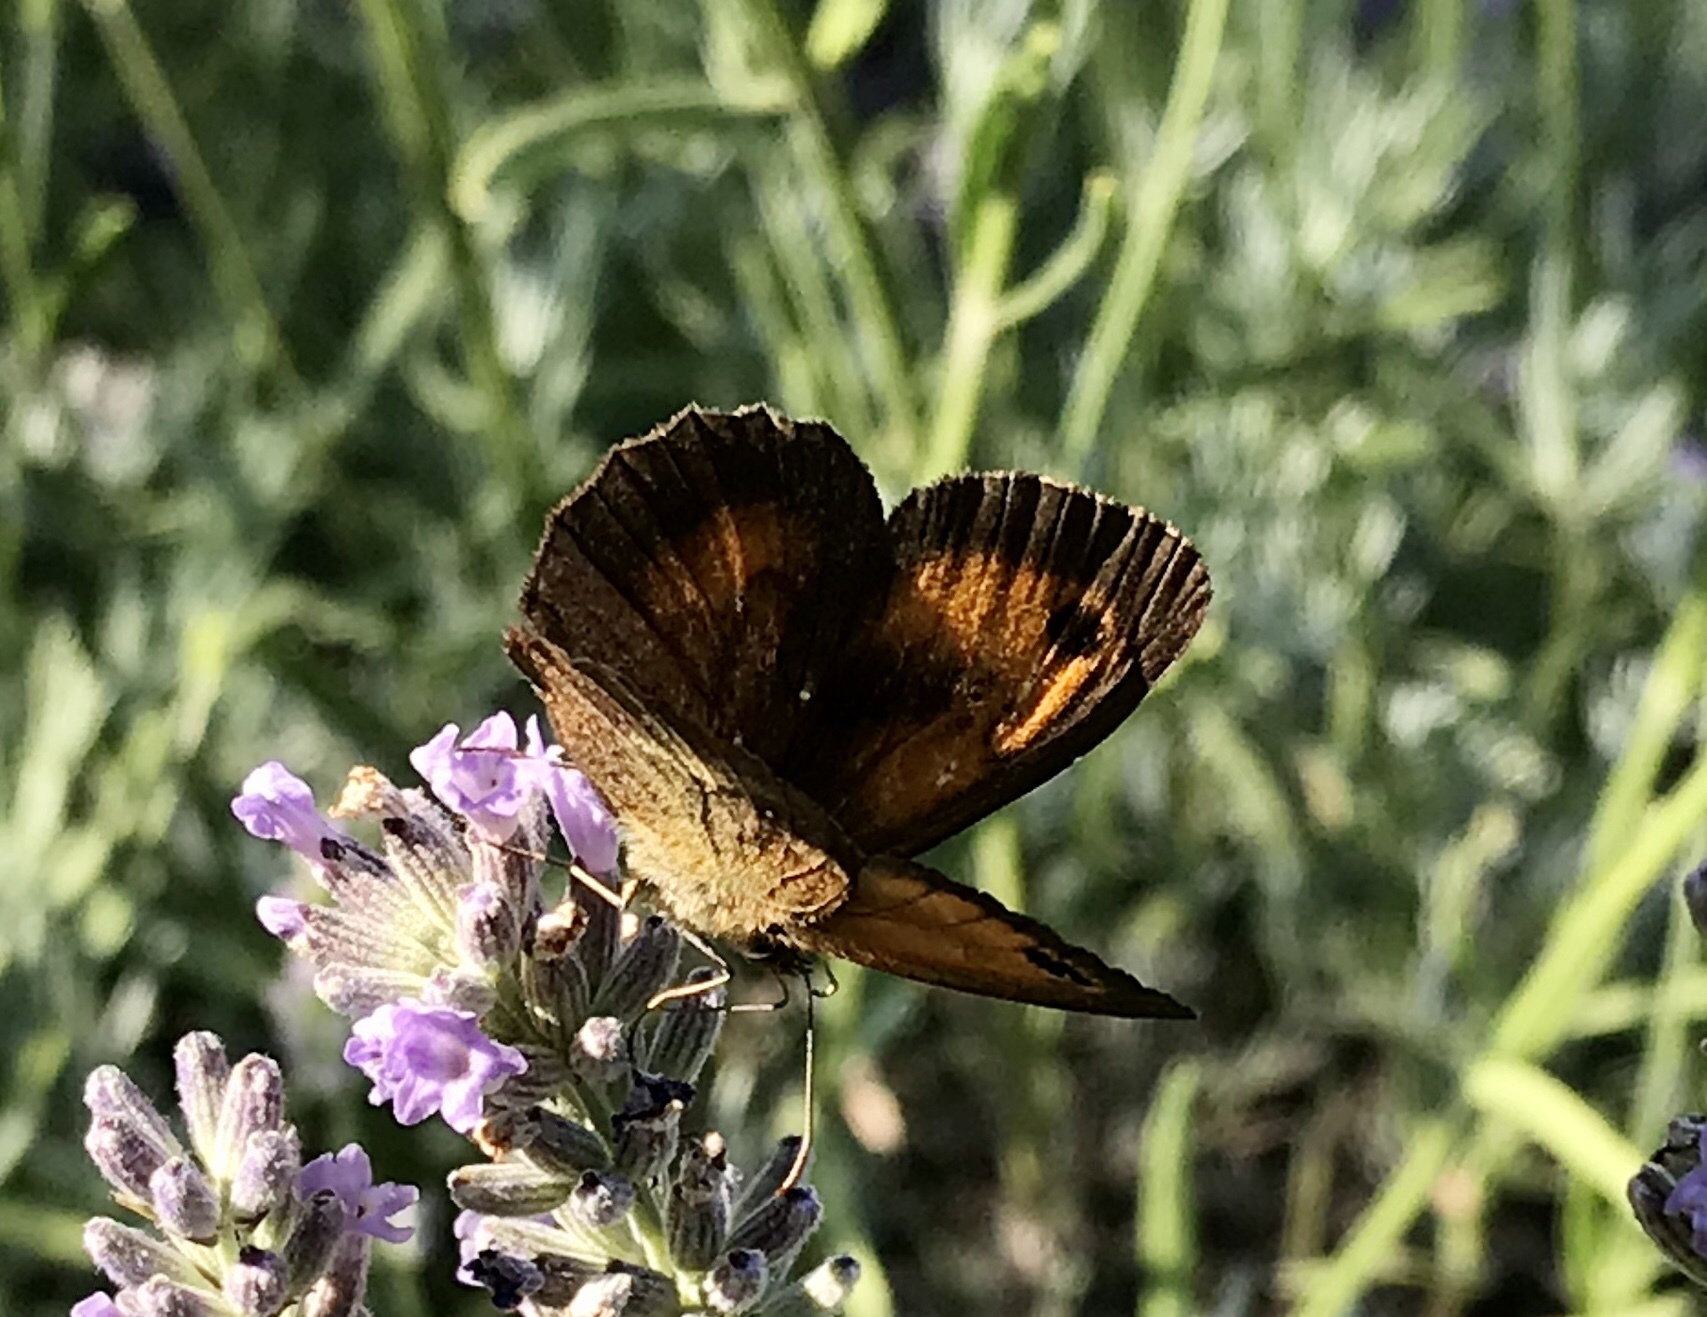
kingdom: Animalia
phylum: Arthropoda
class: Insecta
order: Lepidoptera
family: Nymphalidae
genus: Pyronia
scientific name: Pyronia tithonus
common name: Gatekeeper
